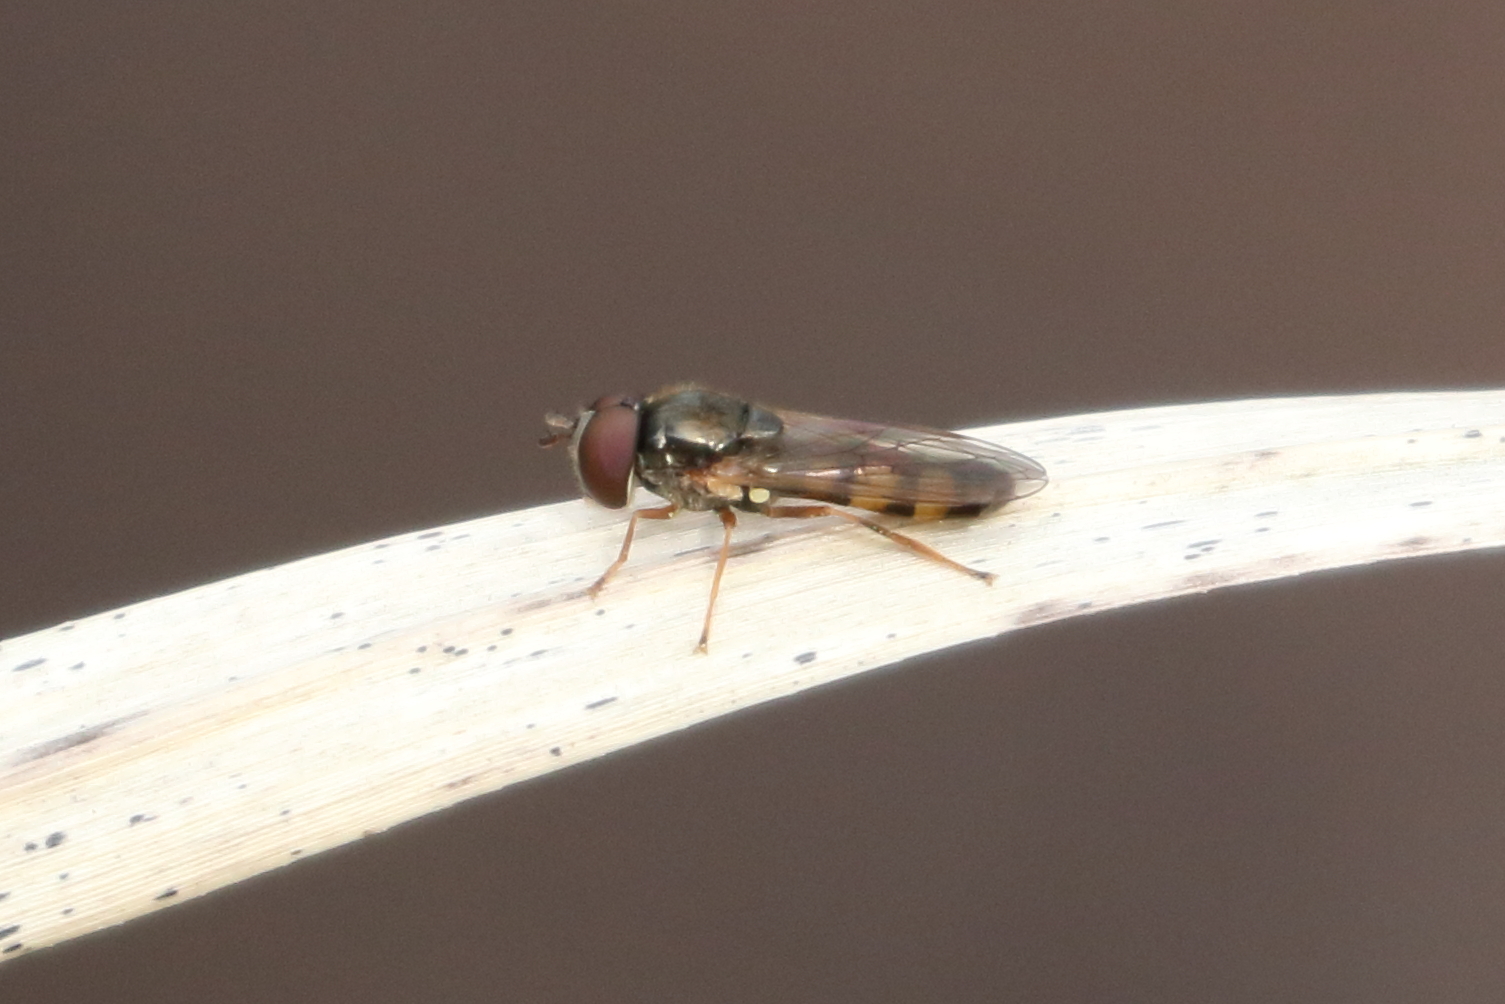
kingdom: Animalia
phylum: Arthropoda
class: Insecta
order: Diptera
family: Syrphidae
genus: Melanostoma
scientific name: Melanostoma mellina
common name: Hover fly
